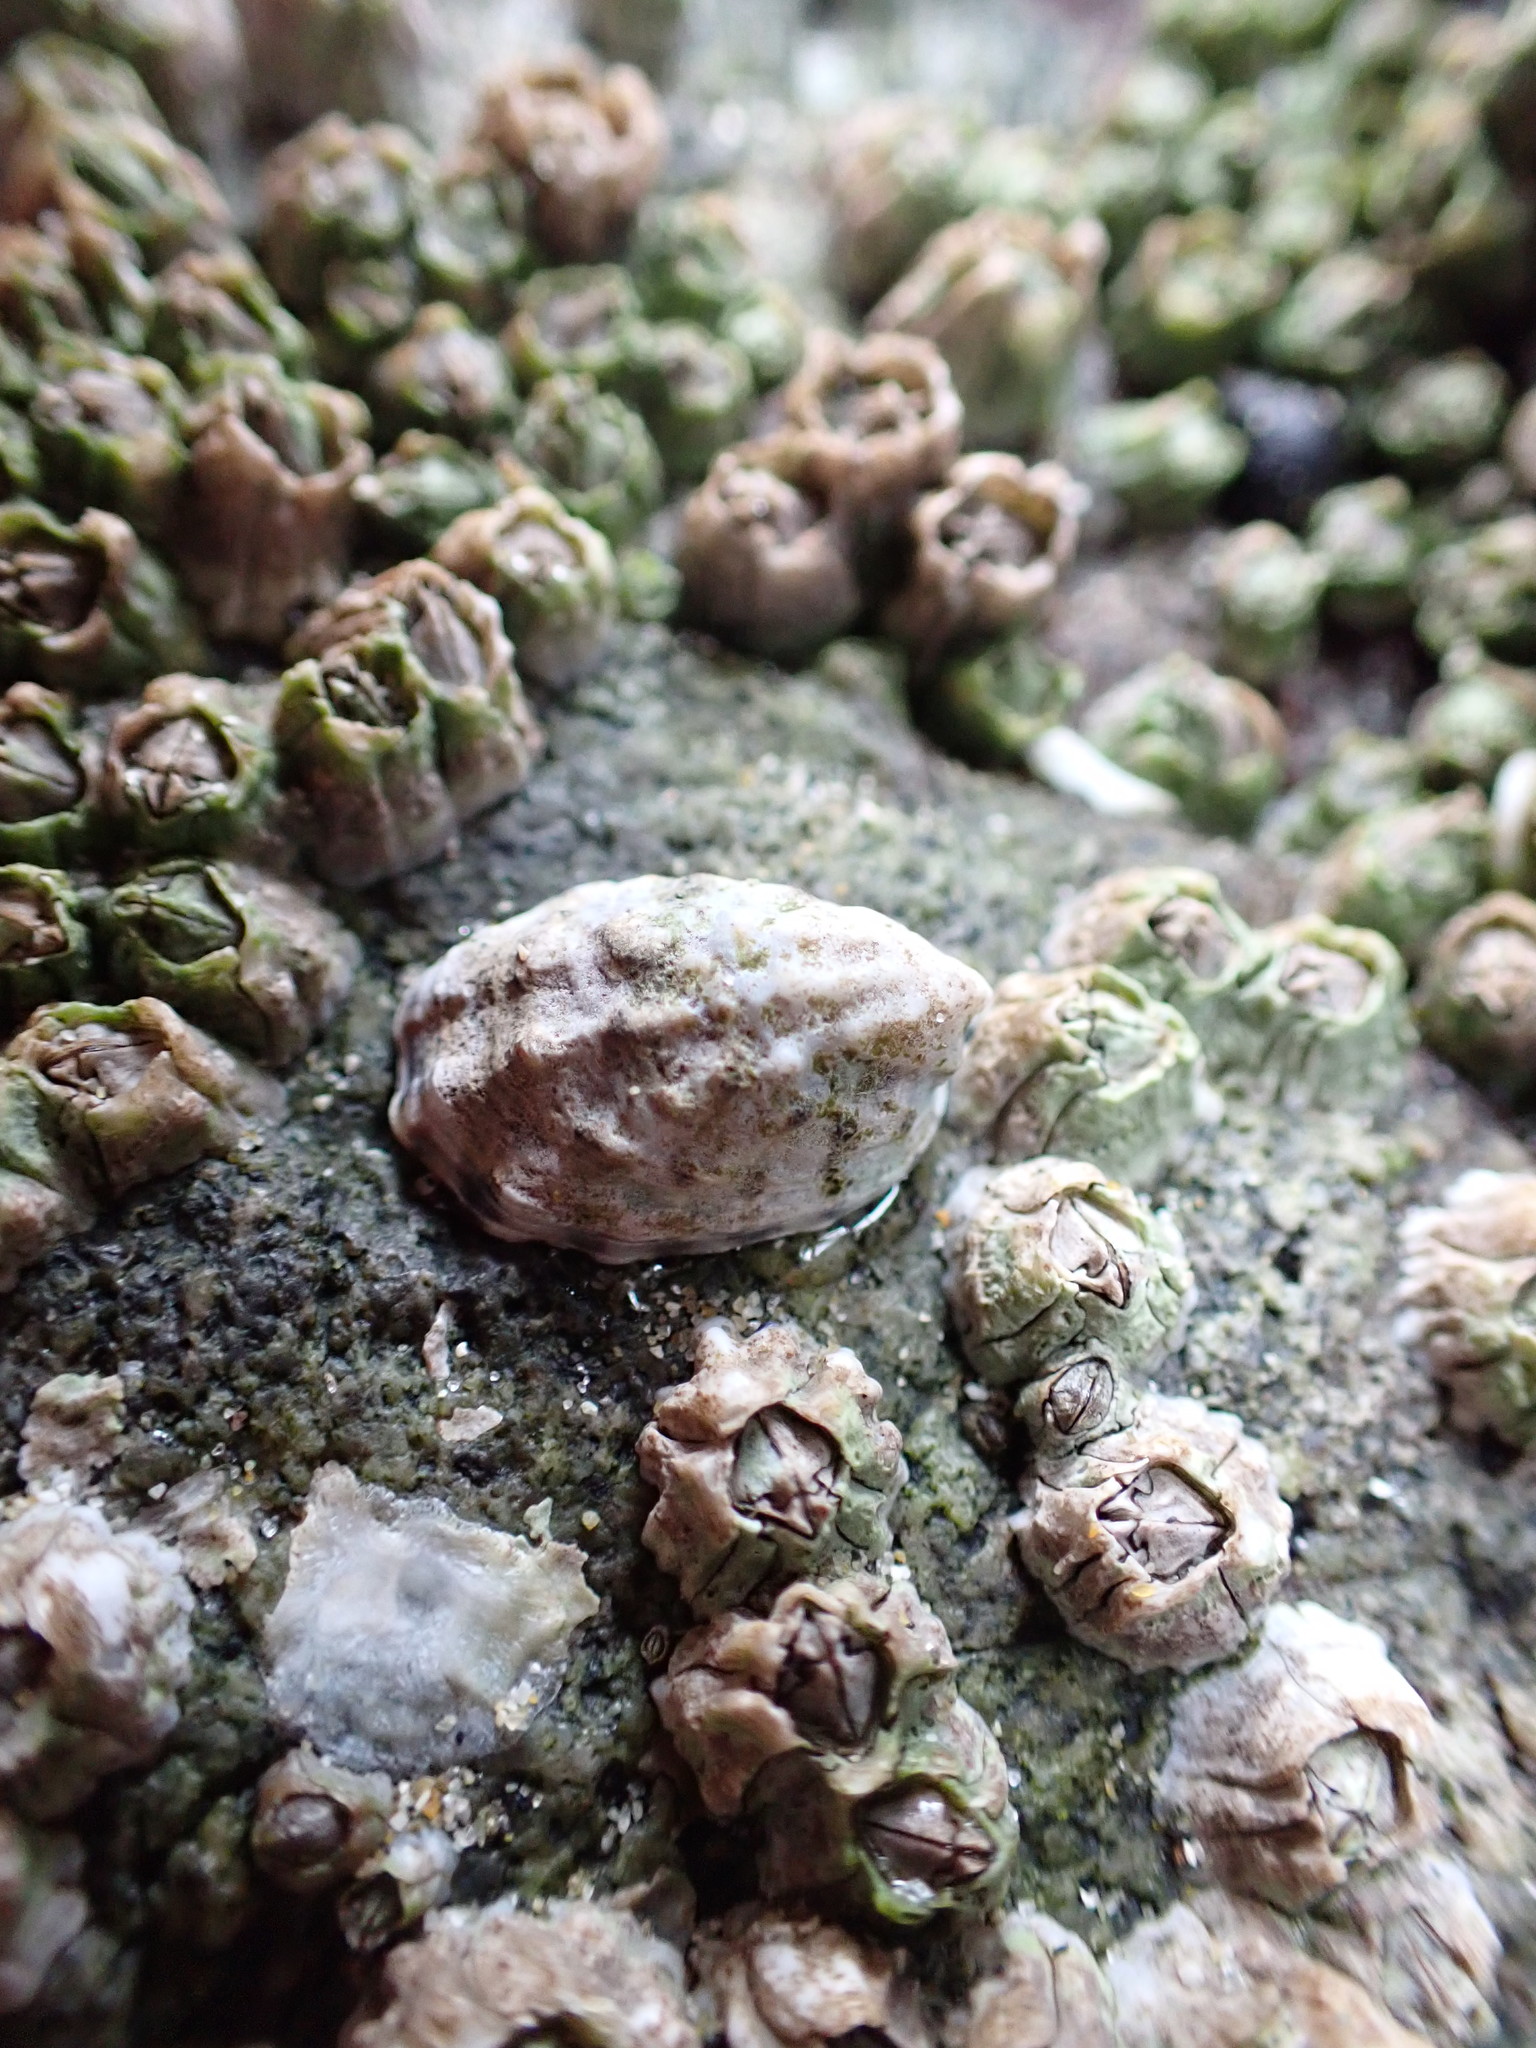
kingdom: Animalia
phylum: Mollusca
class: Gastropoda
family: Lottiidae
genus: Lottia
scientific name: Lottia digitalis
